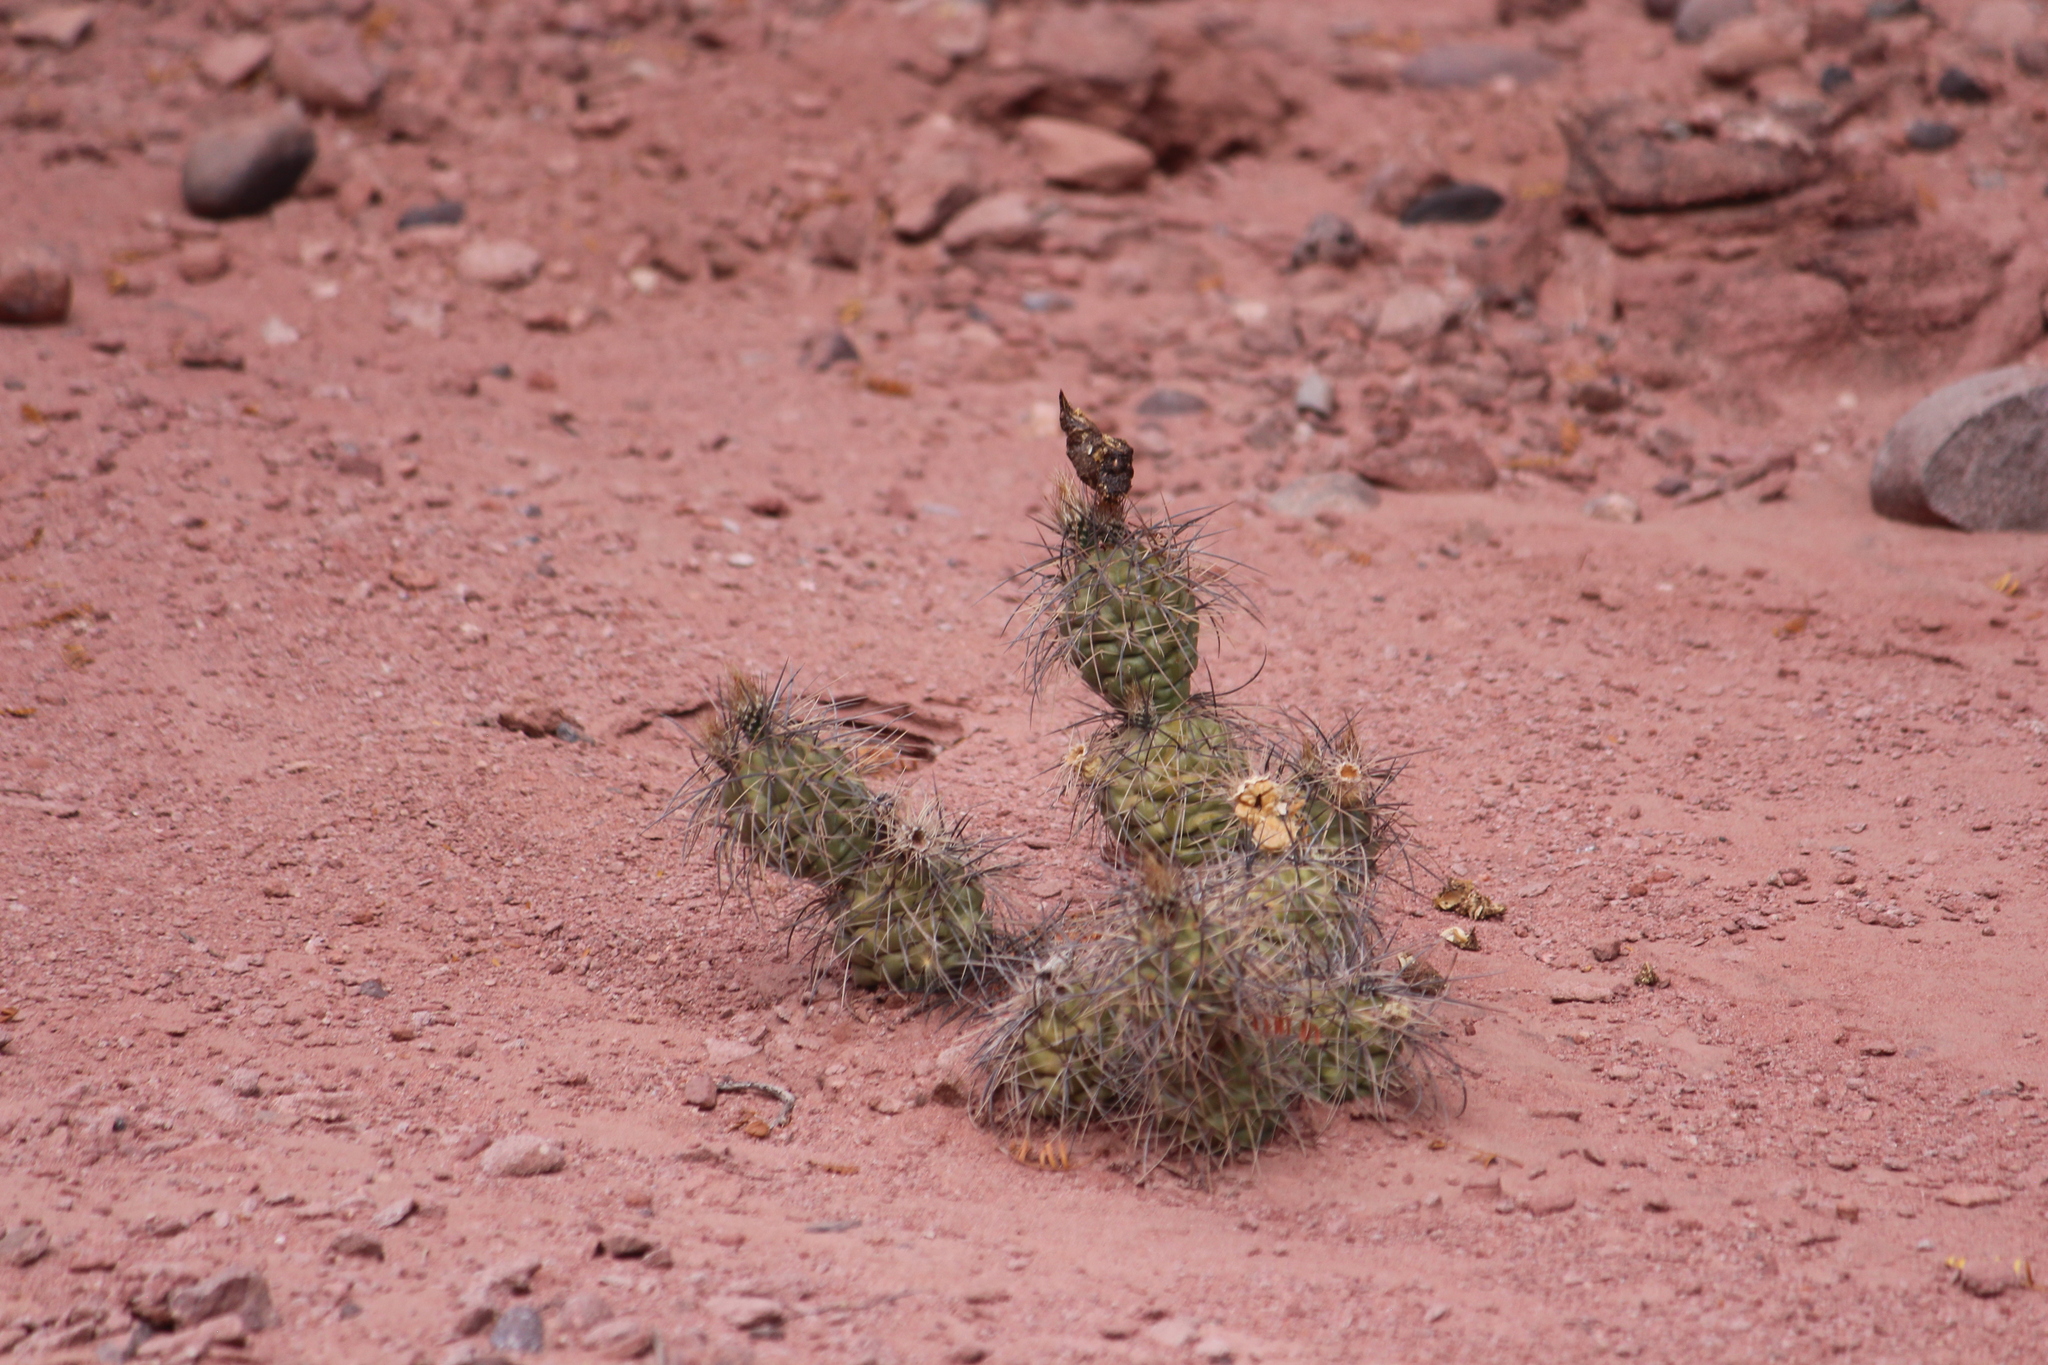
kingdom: Plantae
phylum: Tracheophyta
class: Magnoliopsida
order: Caryophyllales
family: Cactaceae
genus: Opuntia
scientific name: Opuntia sulphurea
